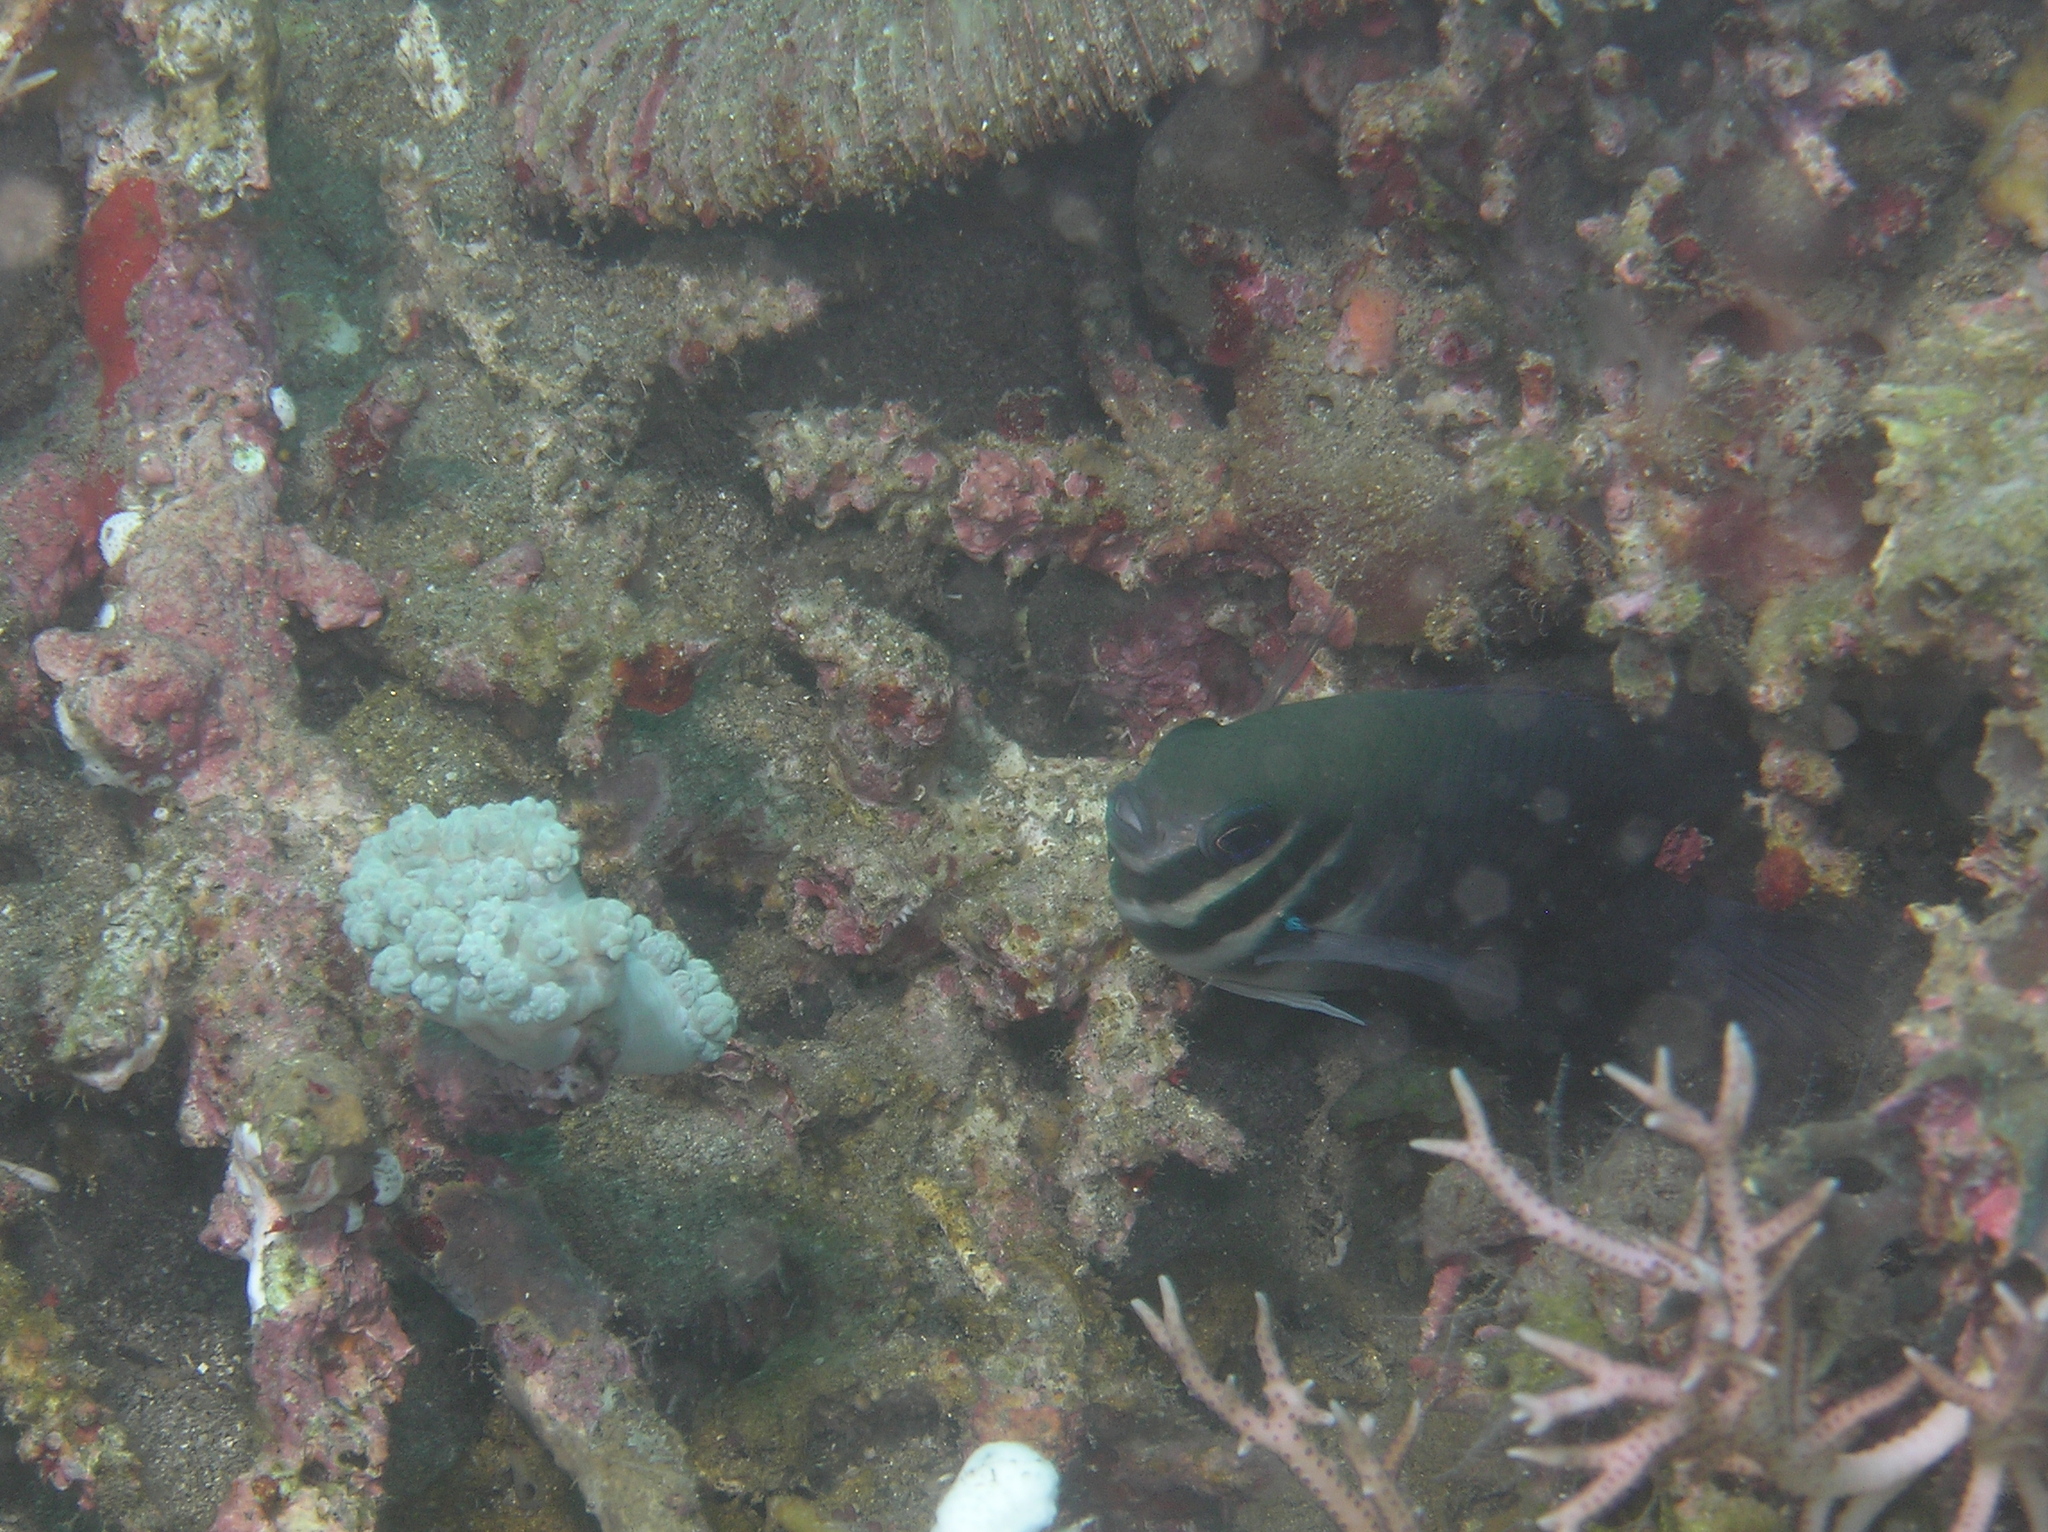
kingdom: Animalia
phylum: Chordata
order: Perciformes
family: Pomacentridae
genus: Neoglyphidodon
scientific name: Neoglyphidodon thoracotaeniatus
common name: Bar-head damsel
